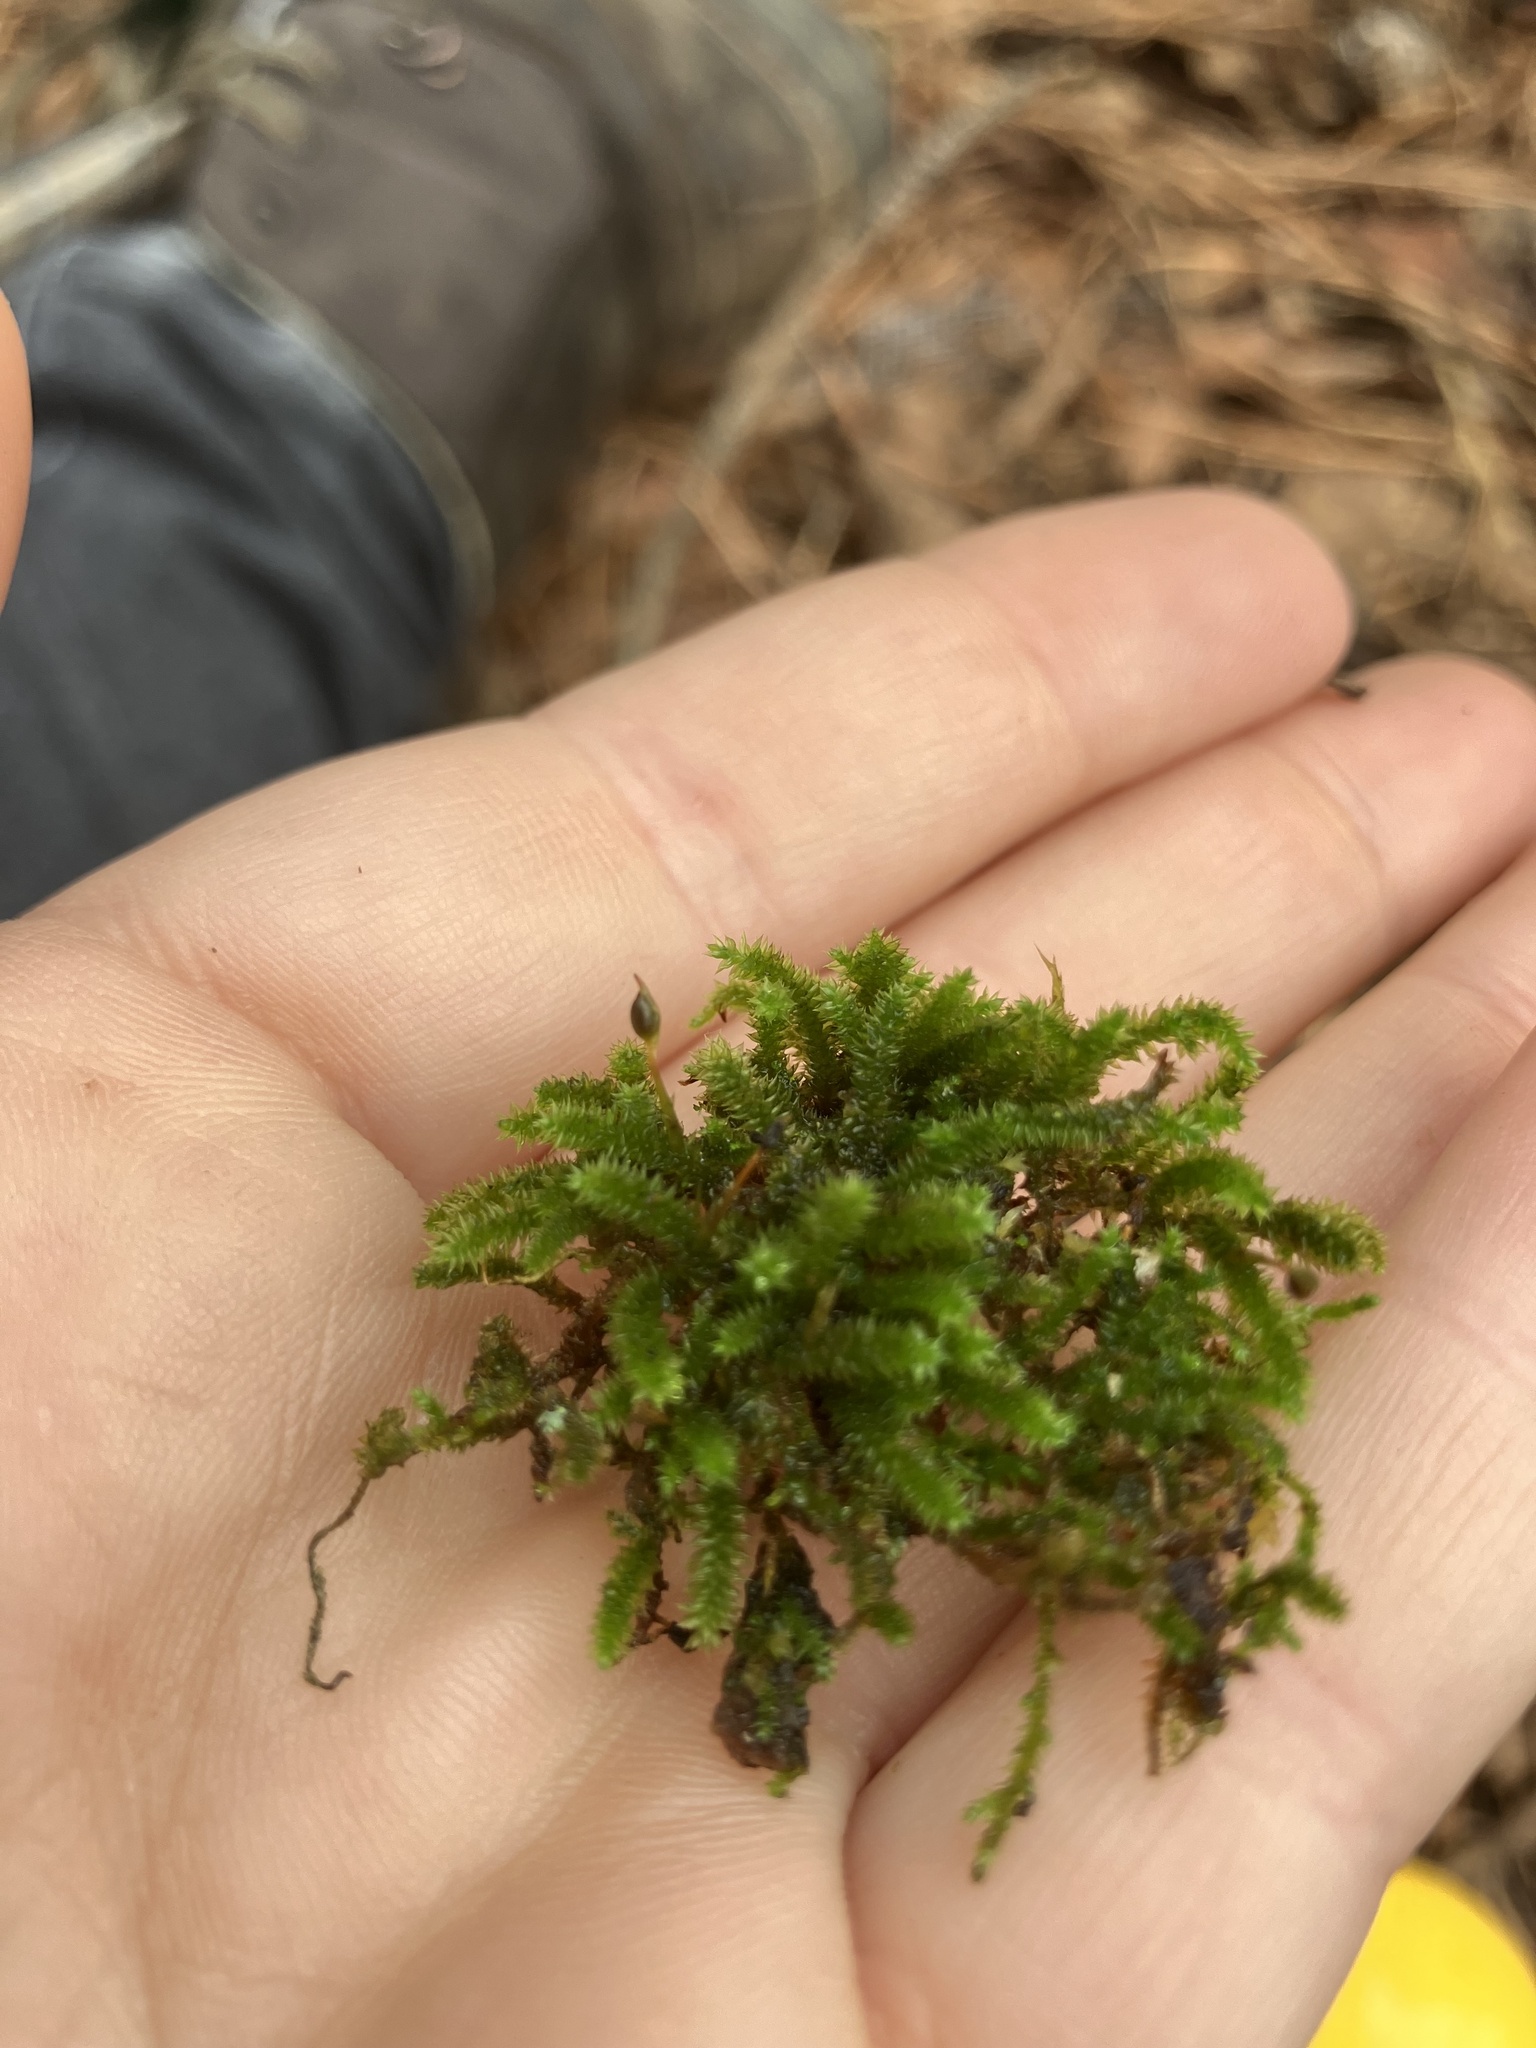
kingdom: Plantae
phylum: Bryophyta
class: Bryopsida
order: Hypnales
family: Leucodontaceae
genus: Leucodon
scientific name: Leucodon julaceus
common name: Smooth hook moss
